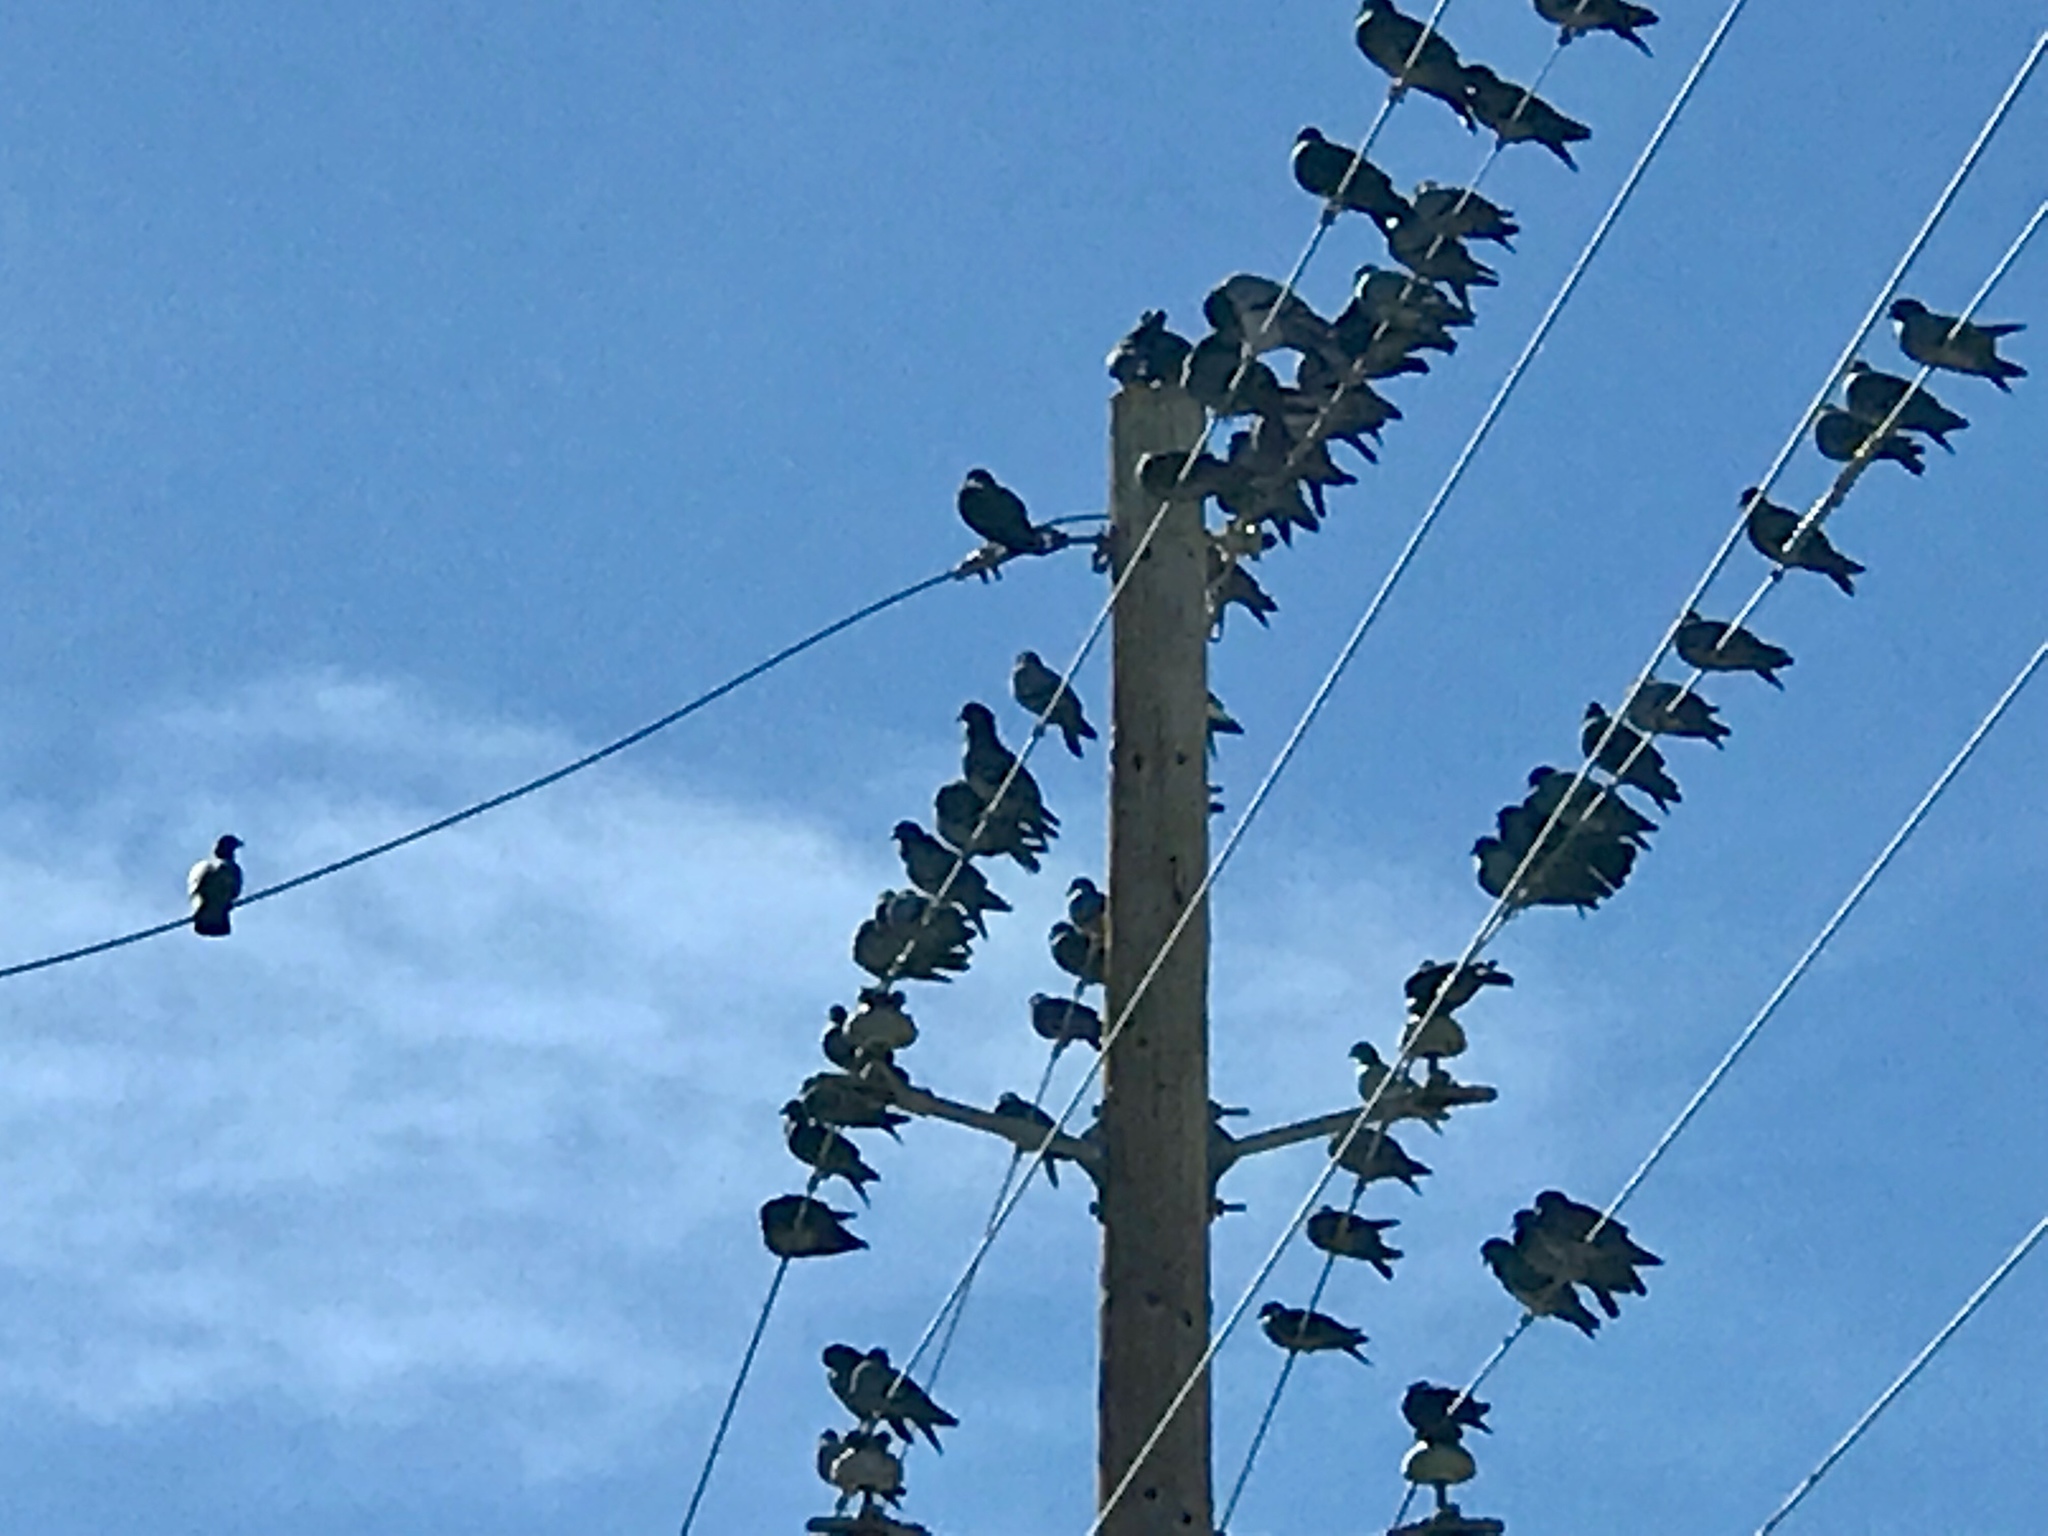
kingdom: Animalia
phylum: Chordata
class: Aves
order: Columbiformes
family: Columbidae
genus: Columba
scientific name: Columba livia
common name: Rock pigeon
